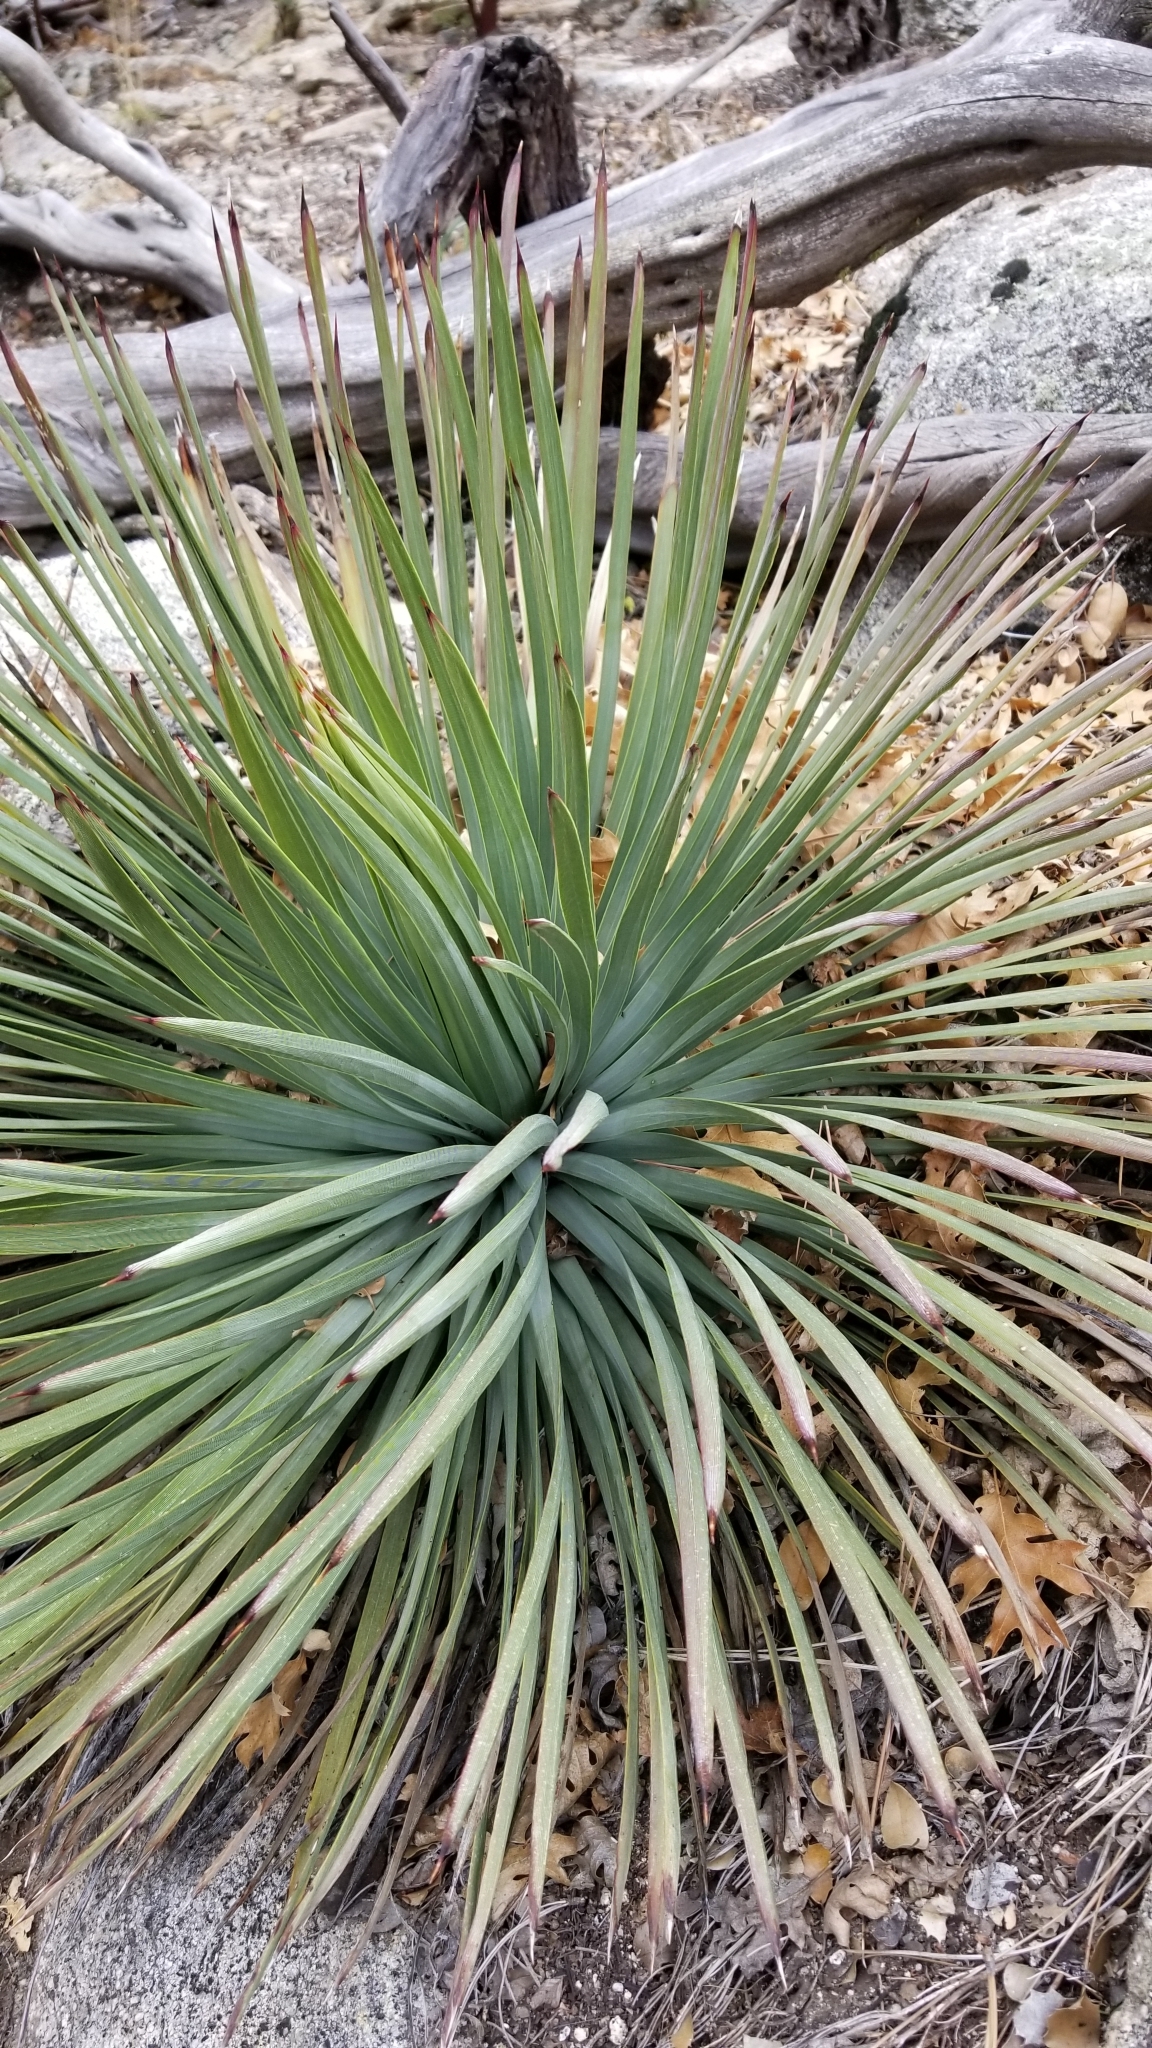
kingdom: Plantae
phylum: Tracheophyta
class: Liliopsida
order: Asparagales
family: Asparagaceae
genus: Hesperoyucca
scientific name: Hesperoyucca whipplei
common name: Our lord's-candle
